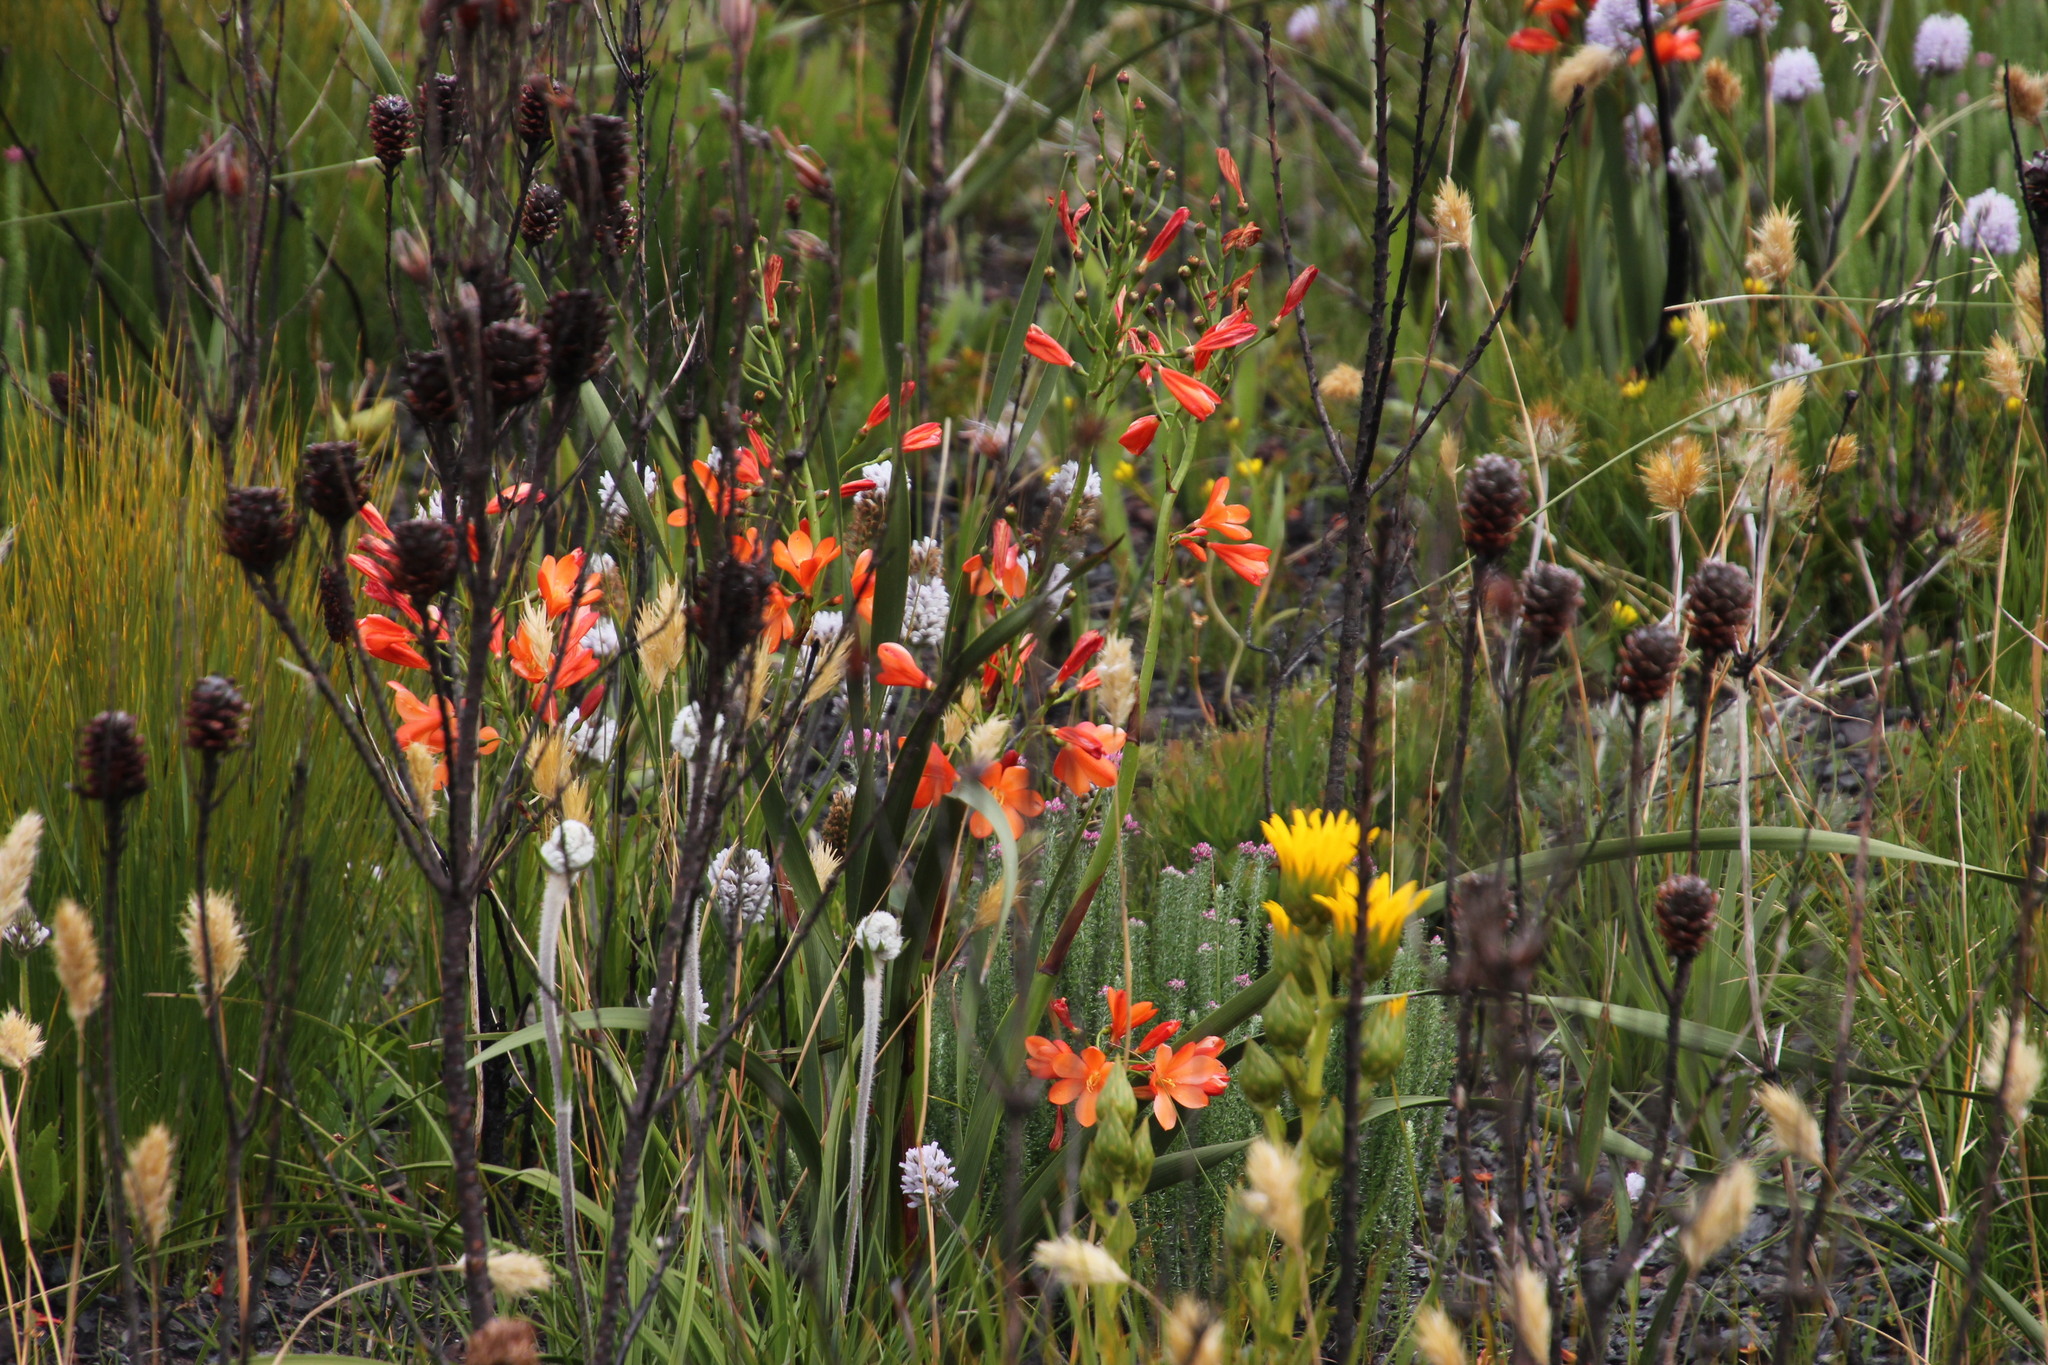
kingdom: Plantae
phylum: Tracheophyta
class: Liliopsida
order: Asparagales
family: Iridaceae
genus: Pillansia
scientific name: Pillansia templemannii
